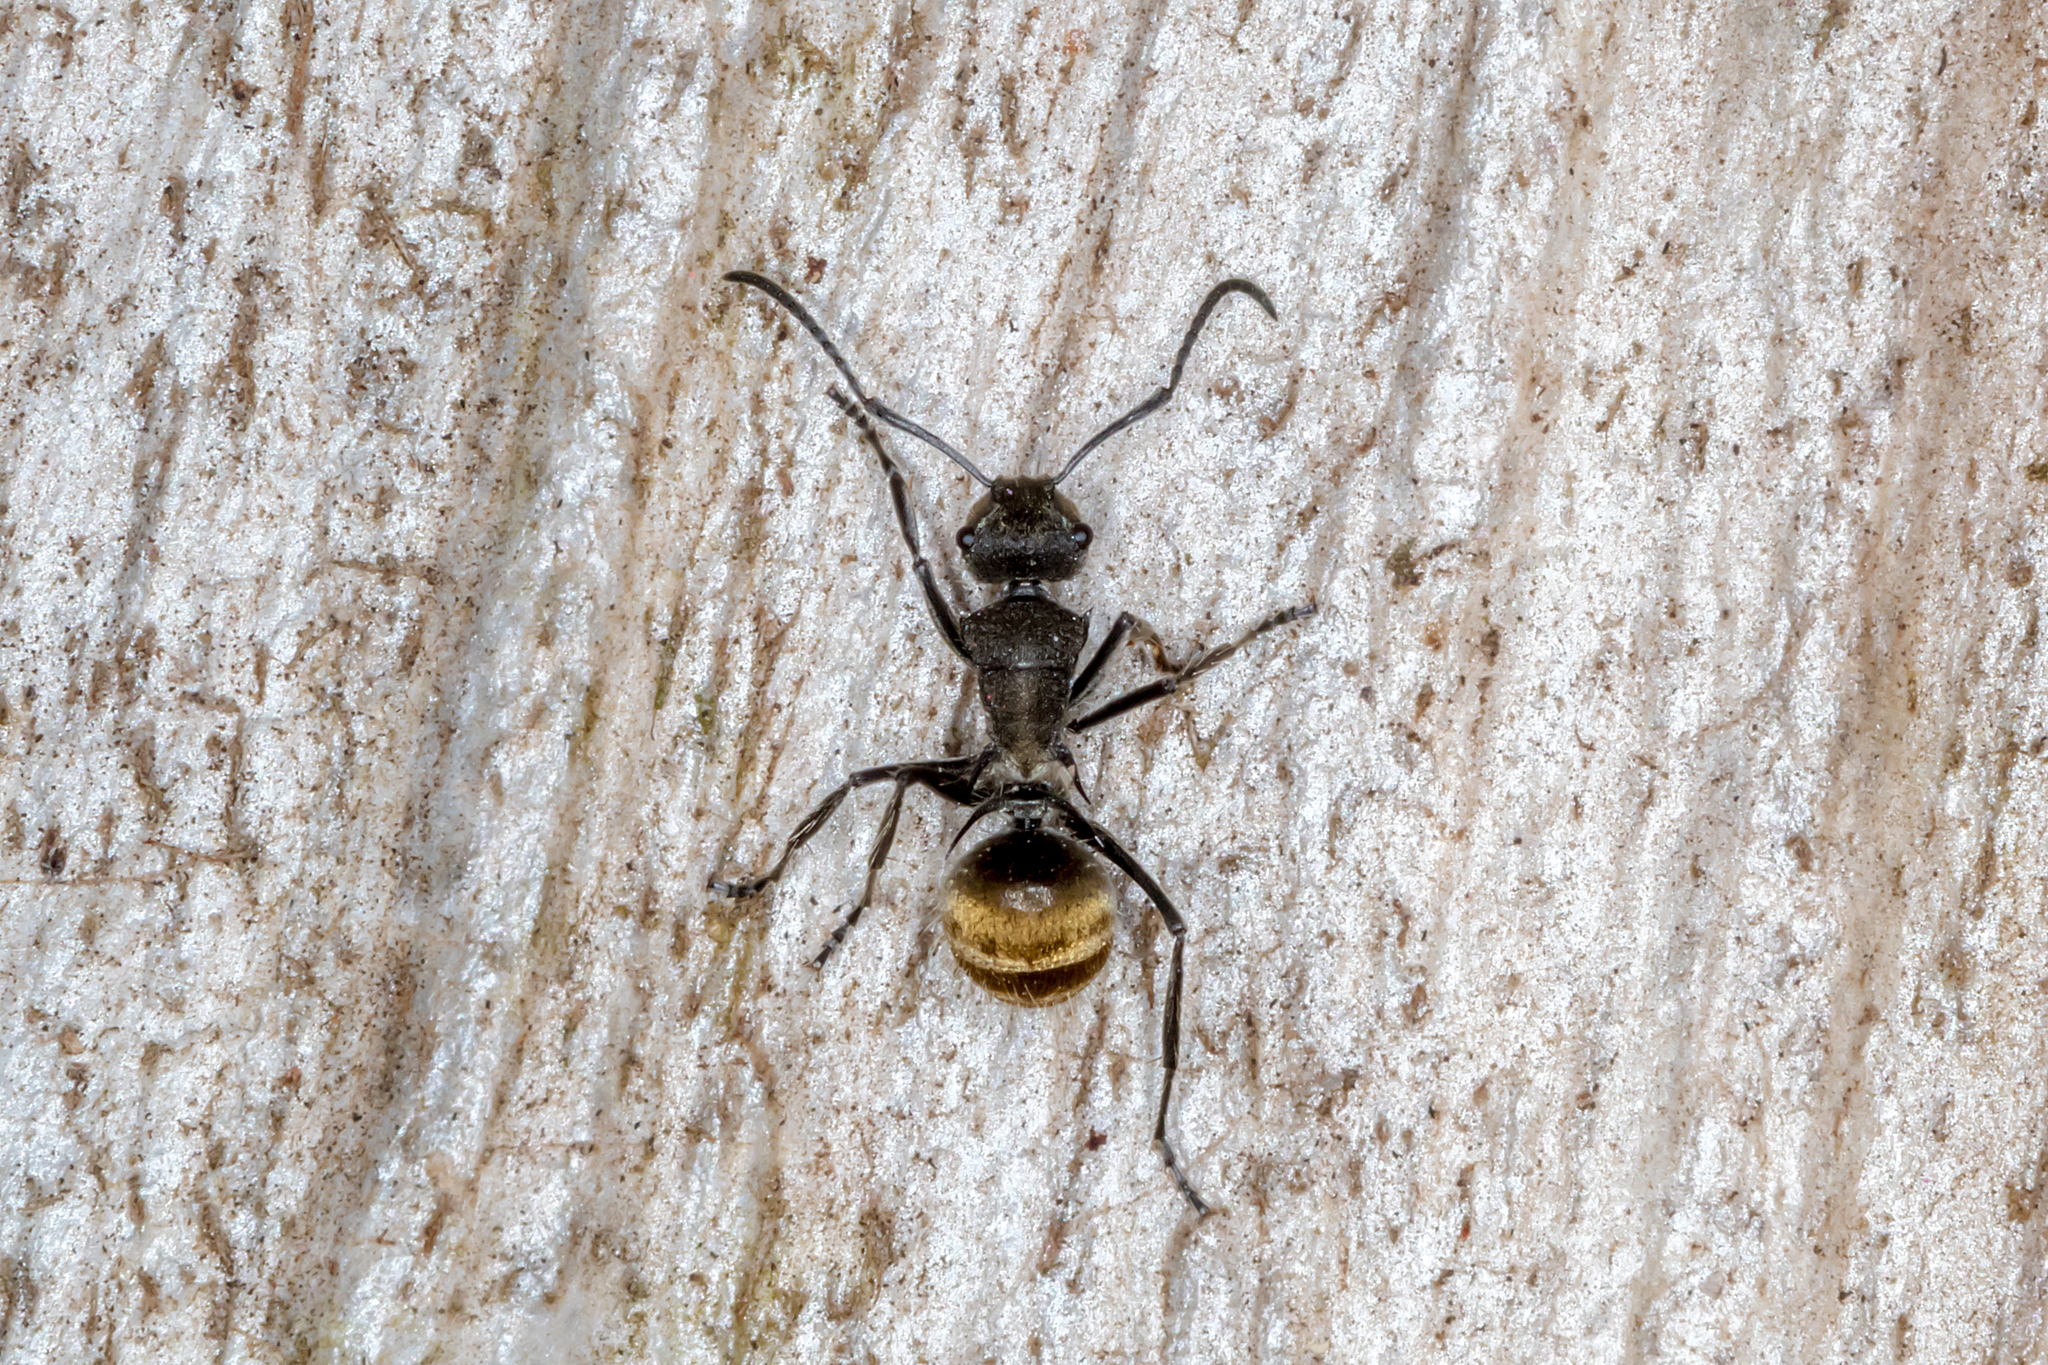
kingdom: Animalia
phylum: Arthropoda
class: Insecta
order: Hymenoptera
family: Formicidae
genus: Polyrhachis
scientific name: Polyrhachis aurea
